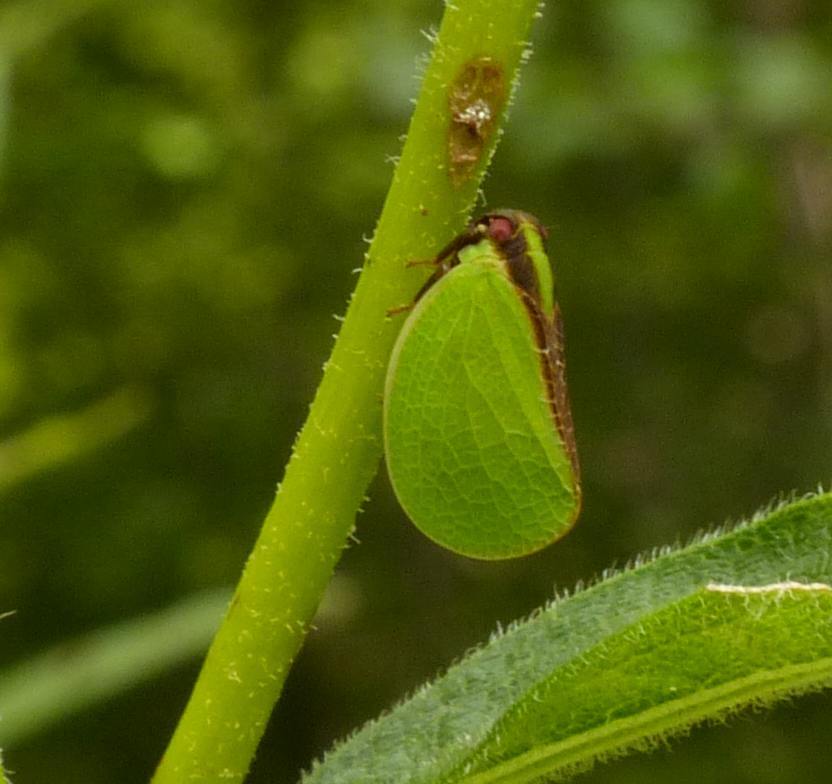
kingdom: Animalia
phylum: Arthropoda
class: Insecta
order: Hemiptera
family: Acanaloniidae
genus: Acanalonia
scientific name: Acanalonia bivittata
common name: Two-striped planthopper
